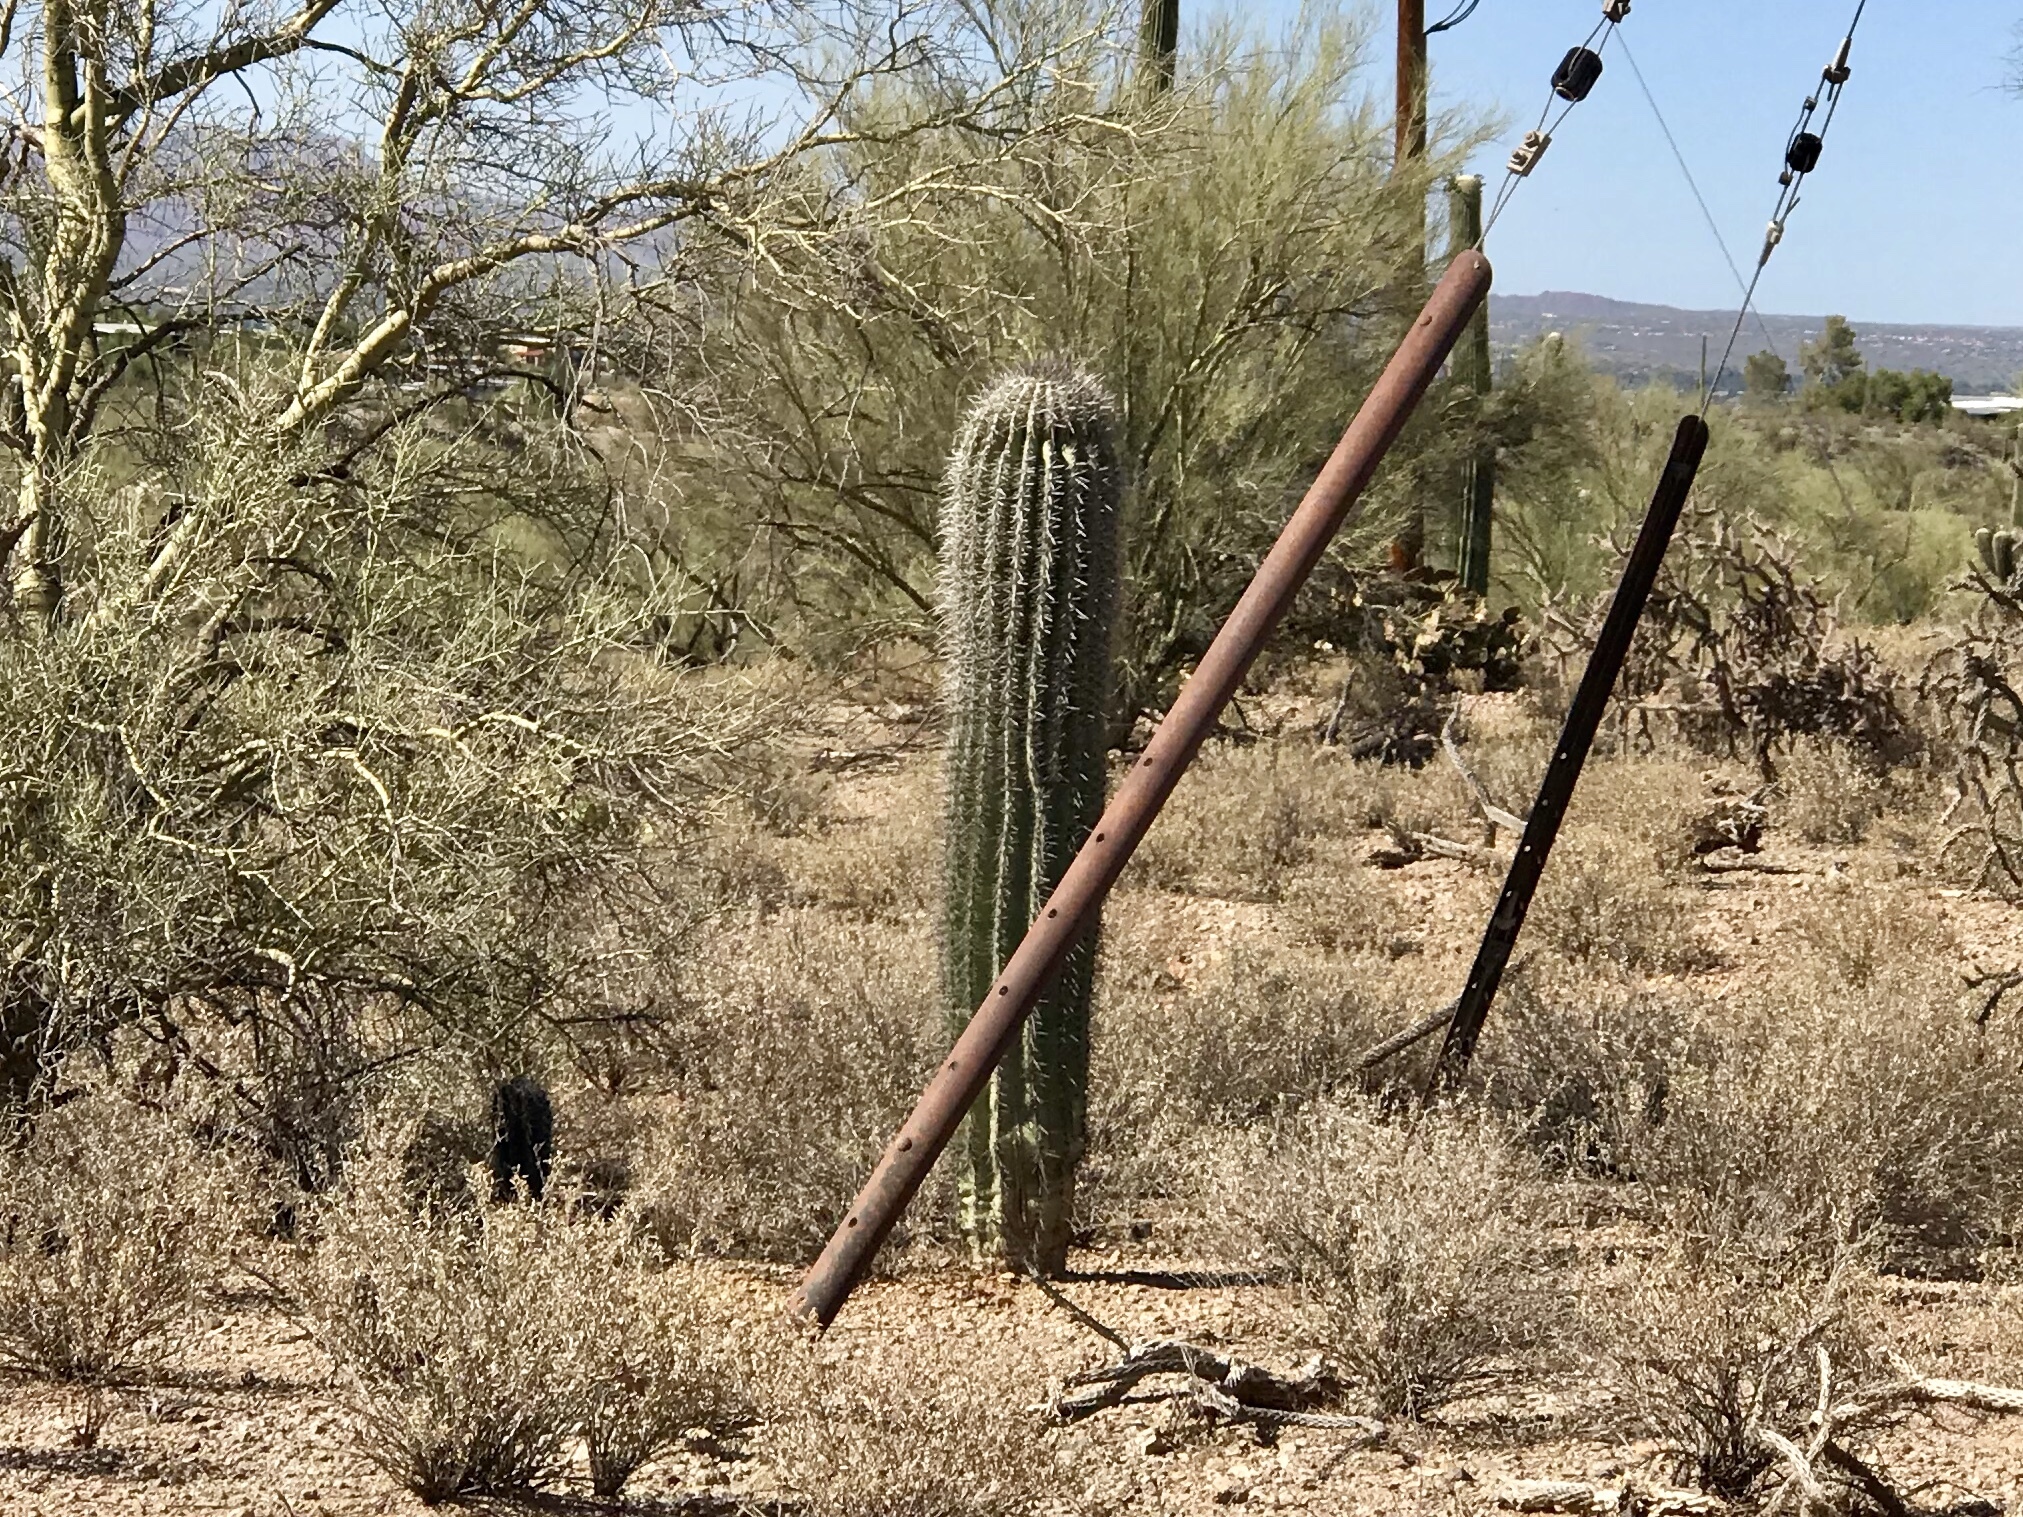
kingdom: Plantae
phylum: Tracheophyta
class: Magnoliopsida
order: Caryophyllales
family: Cactaceae
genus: Carnegiea
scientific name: Carnegiea gigantea
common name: Saguaro
